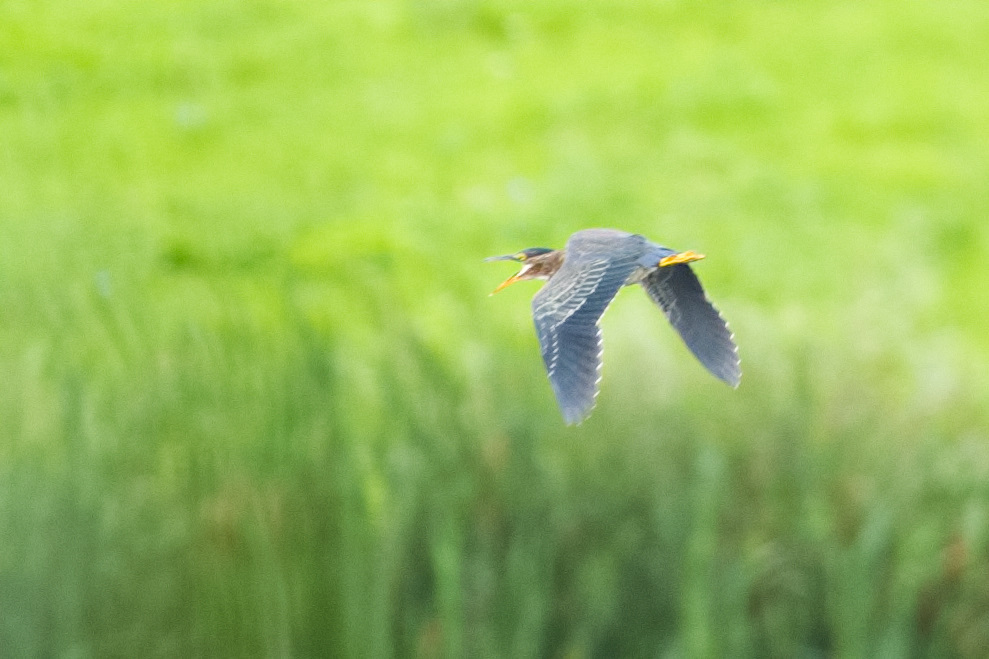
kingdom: Animalia
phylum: Chordata
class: Aves
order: Pelecaniformes
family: Ardeidae
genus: Butorides
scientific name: Butorides virescens
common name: Green heron
